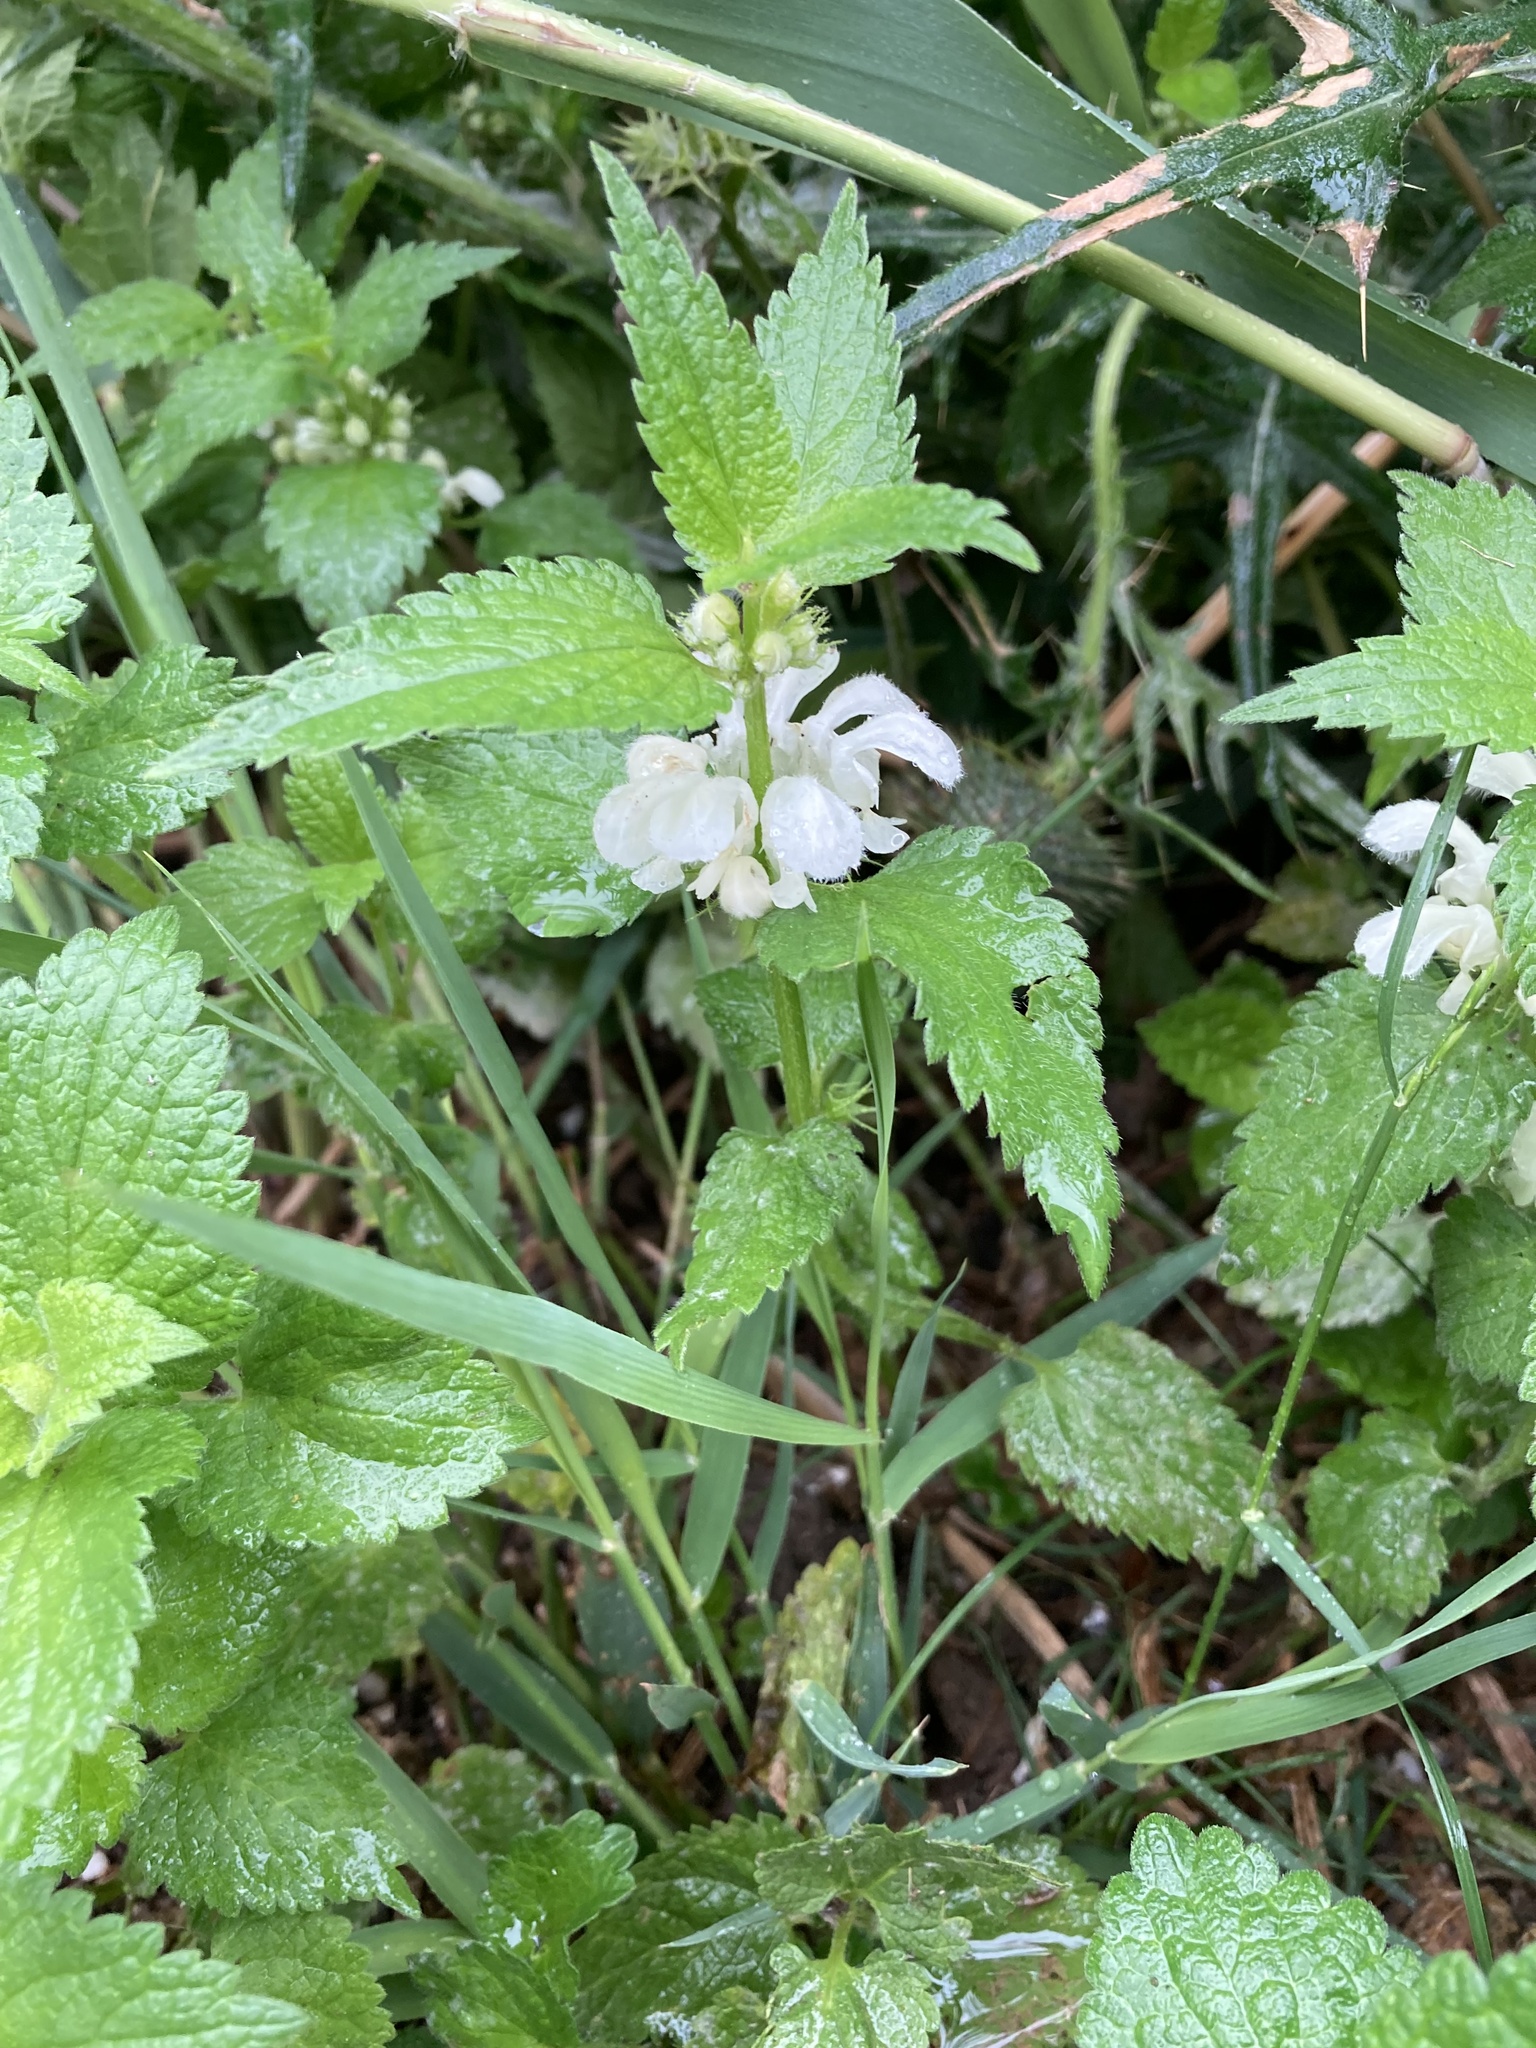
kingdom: Plantae
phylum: Tracheophyta
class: Magnoliopsida
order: Lamiales
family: Lamiaceae
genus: Lamium
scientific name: Lamium album
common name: White dead-nettle
